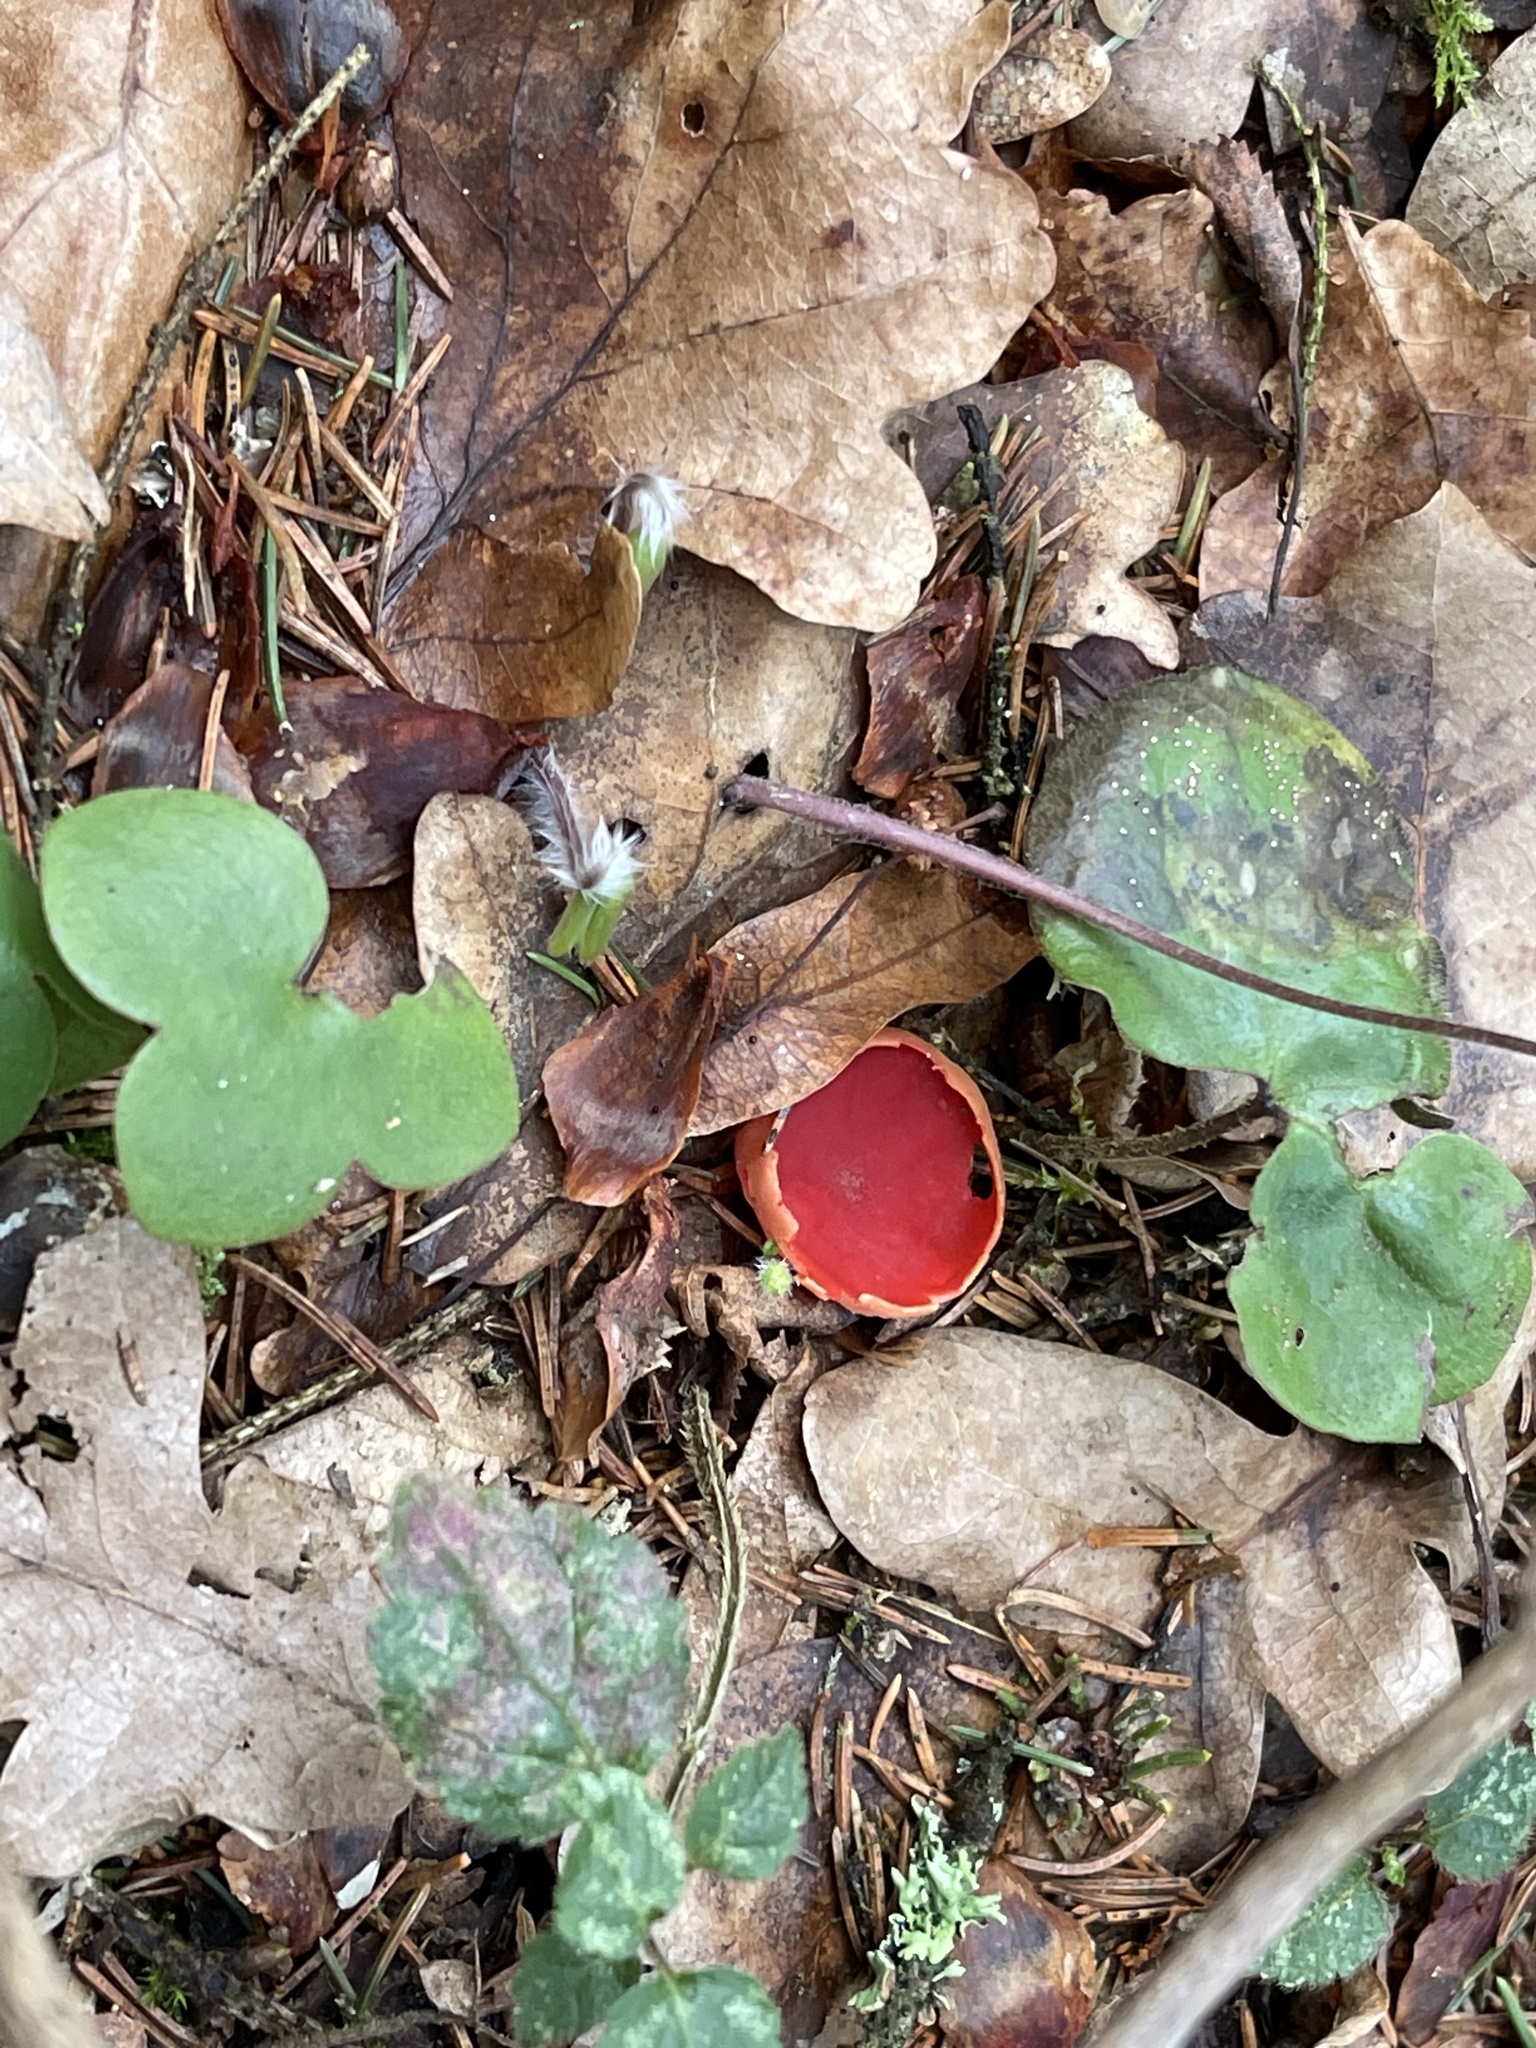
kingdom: Fungi
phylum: Ascomycota
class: Pezizomycetes
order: Pezizales
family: Sarcoscyphaceae
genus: Sarcoscypha
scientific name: Sarcoscypha
